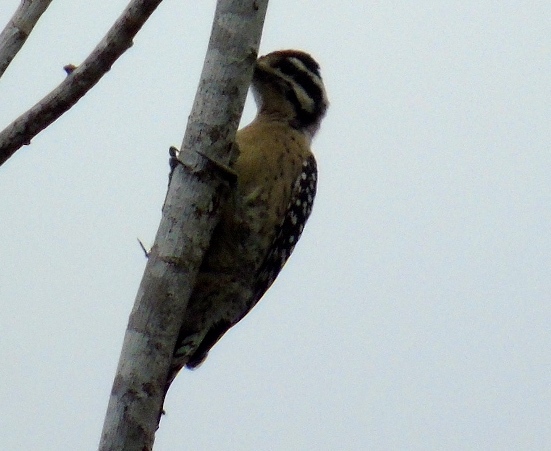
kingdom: Animalia
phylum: Chordata
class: Aves
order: Piciformes
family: Picidae
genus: Dryobates
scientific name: Dryobates scalaris
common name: Ladder-backed woodpecker
